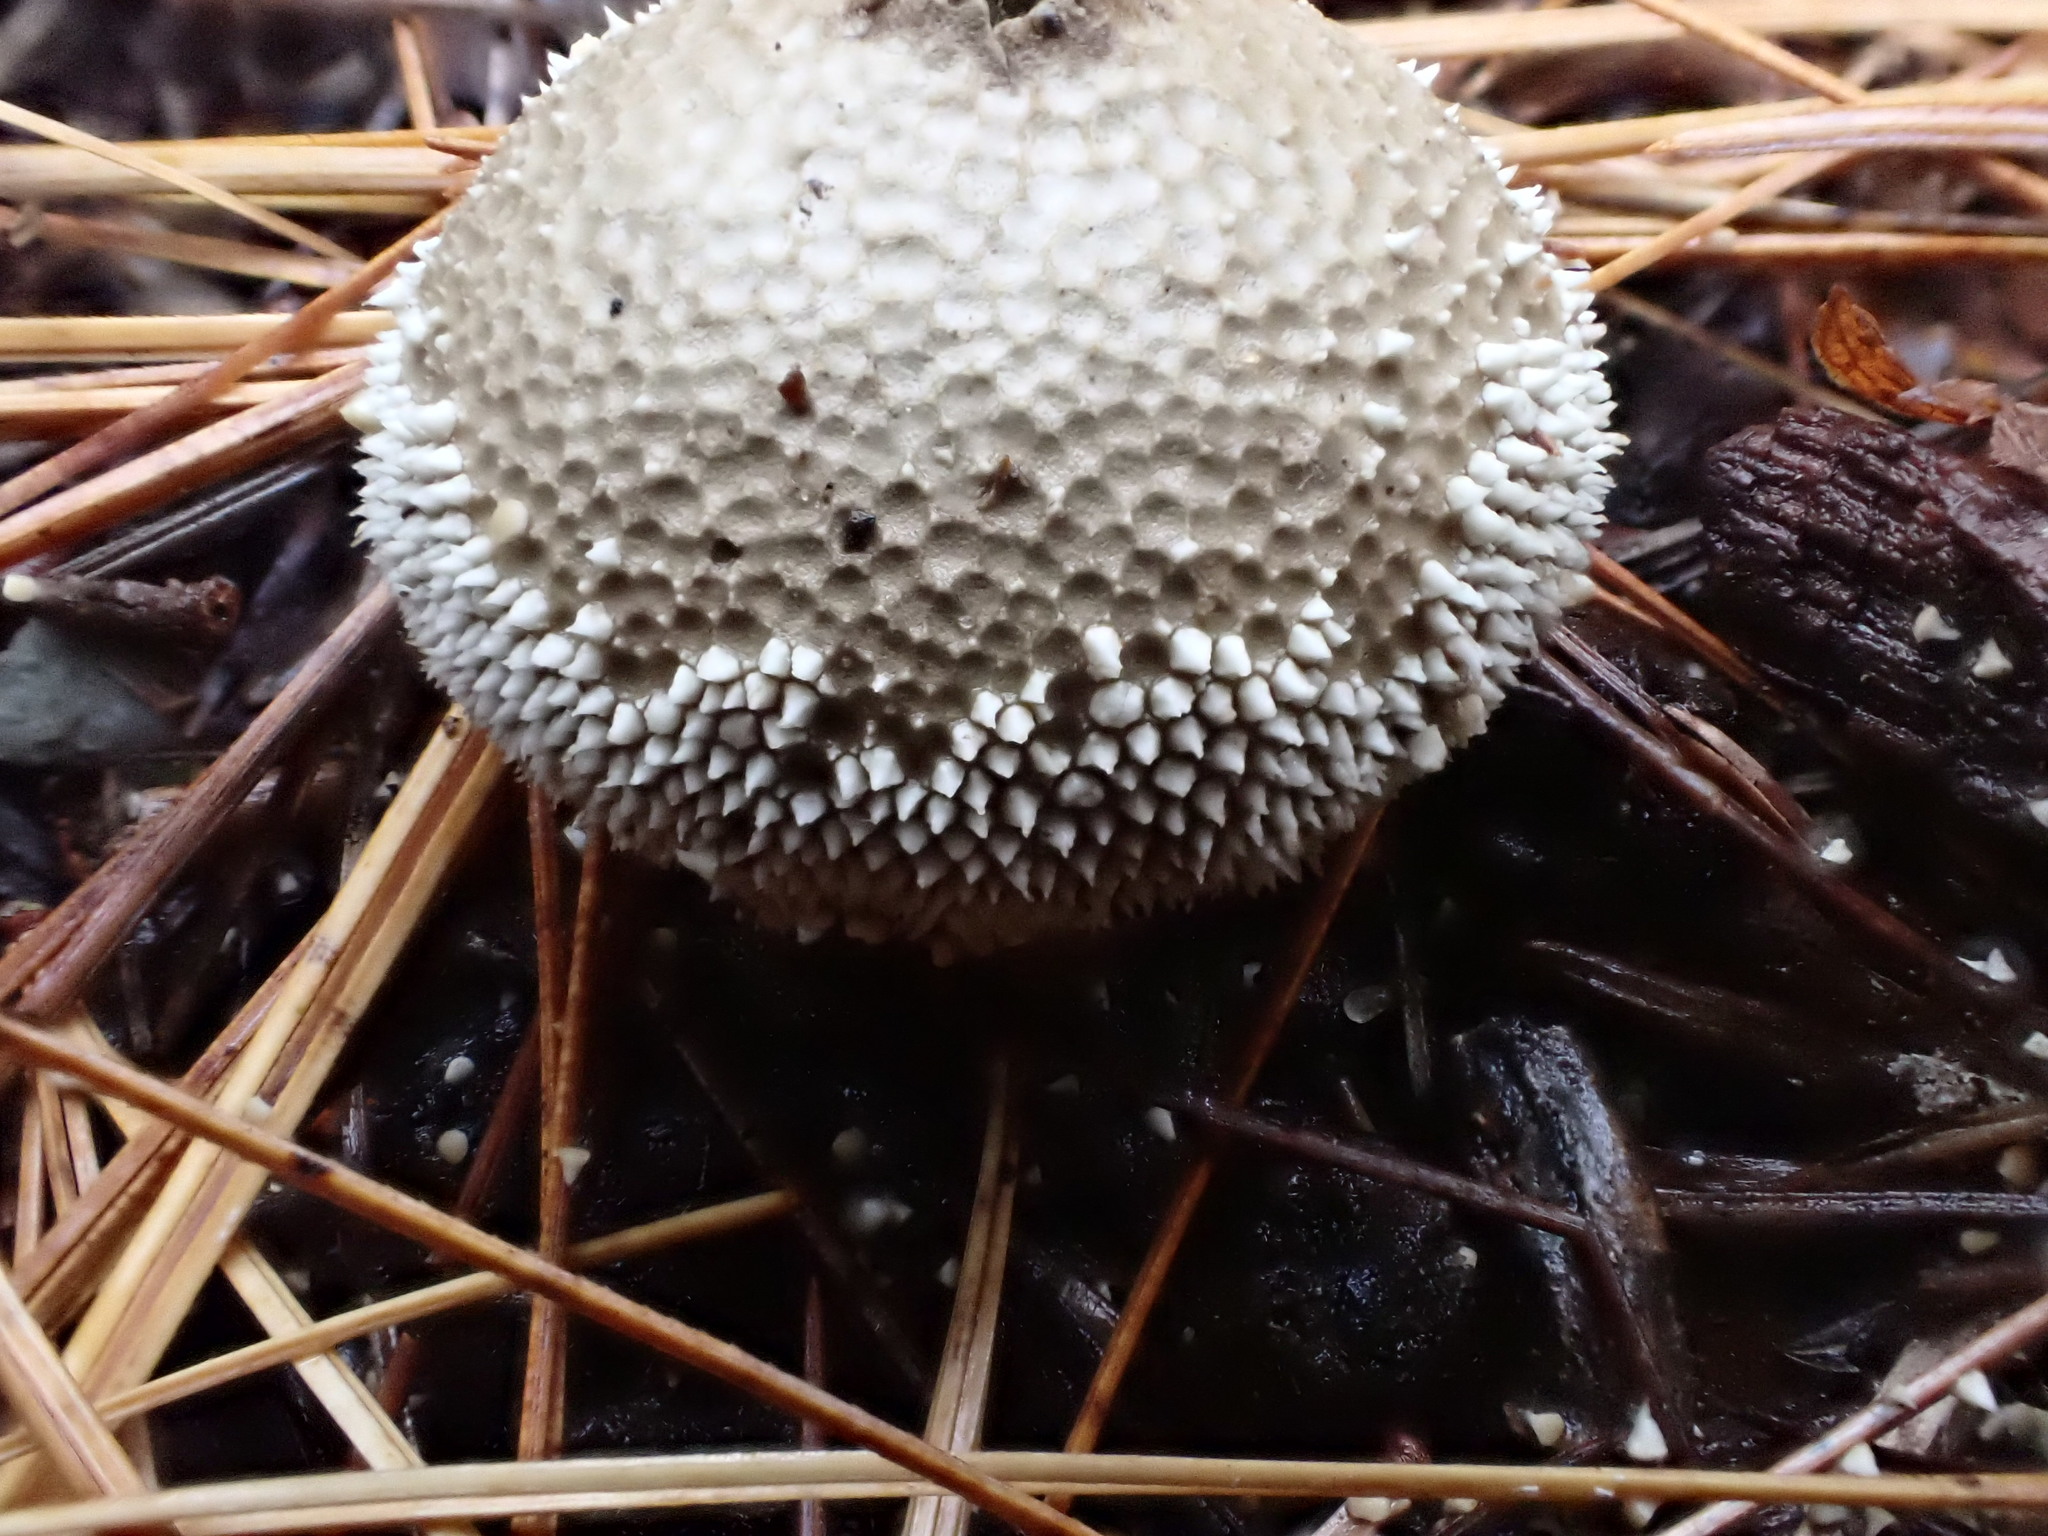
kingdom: Fungi
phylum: Basidiomycota
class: Agaricomycetes
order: Agaricales
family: Lycoperdaceae
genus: Lycoperdon
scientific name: Lycoperdon perlatum
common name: Common puffball
